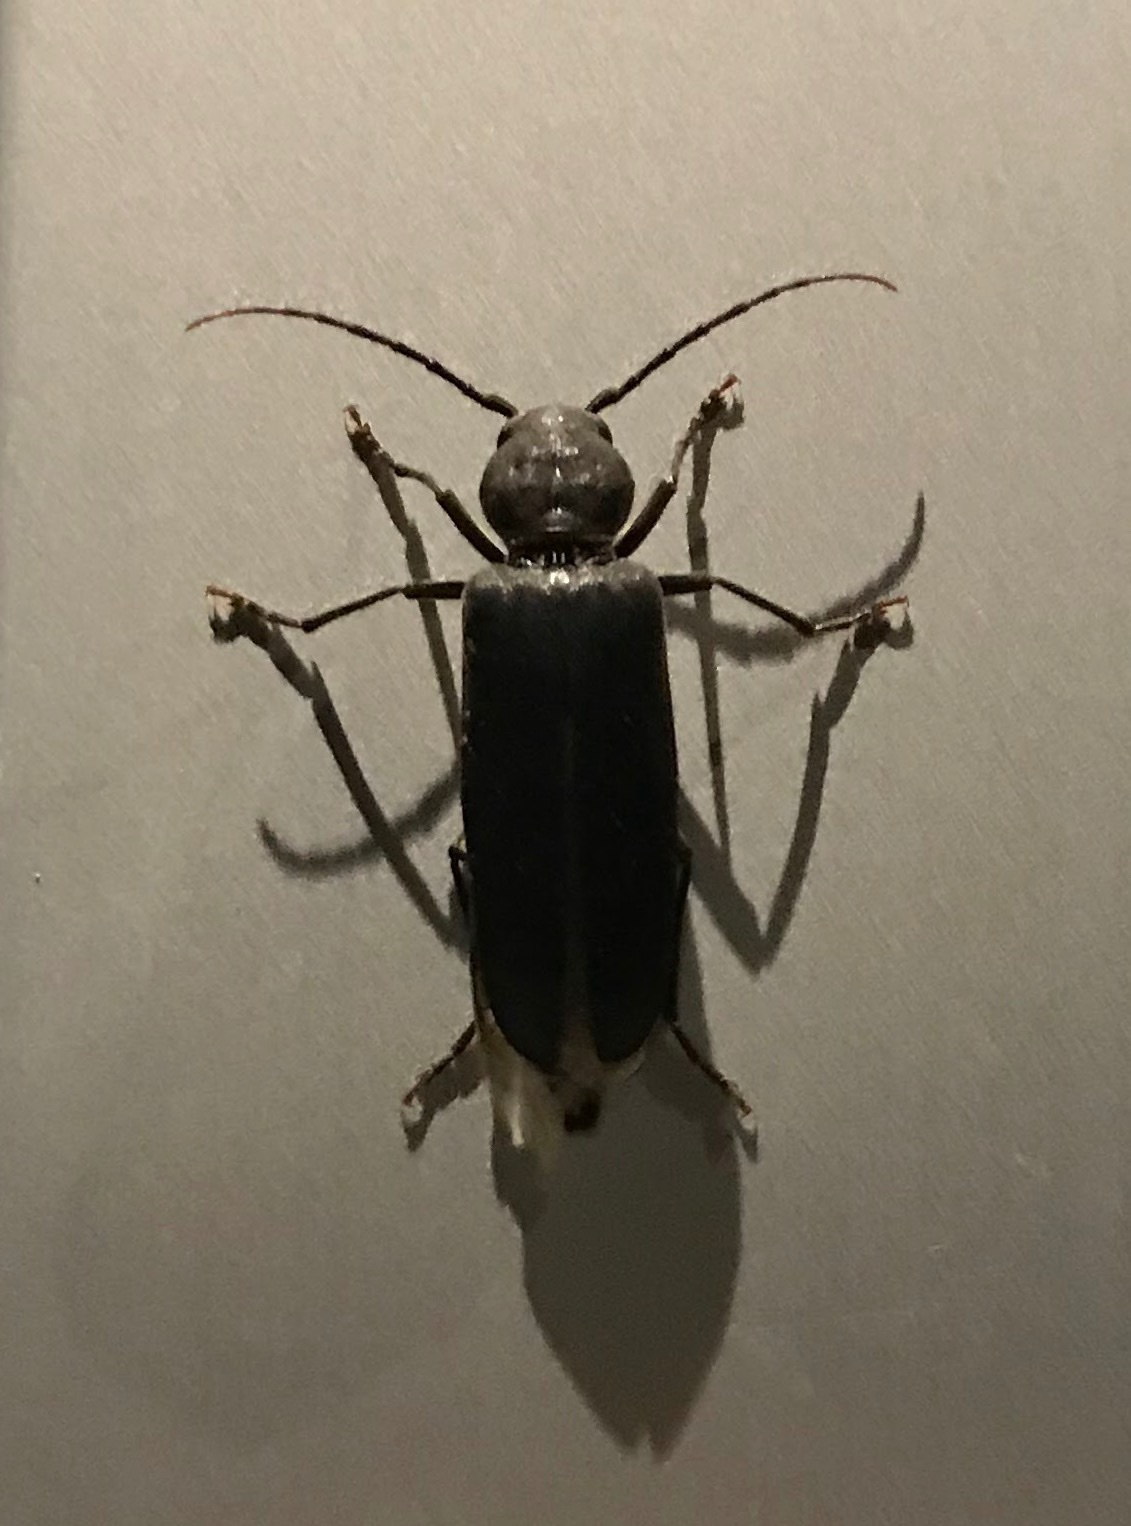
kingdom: Animalia
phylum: Arthropoda
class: Insecta
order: Coleoptera
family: Cerambycidae
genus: Arhopalus
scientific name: Arhopalus ferus
